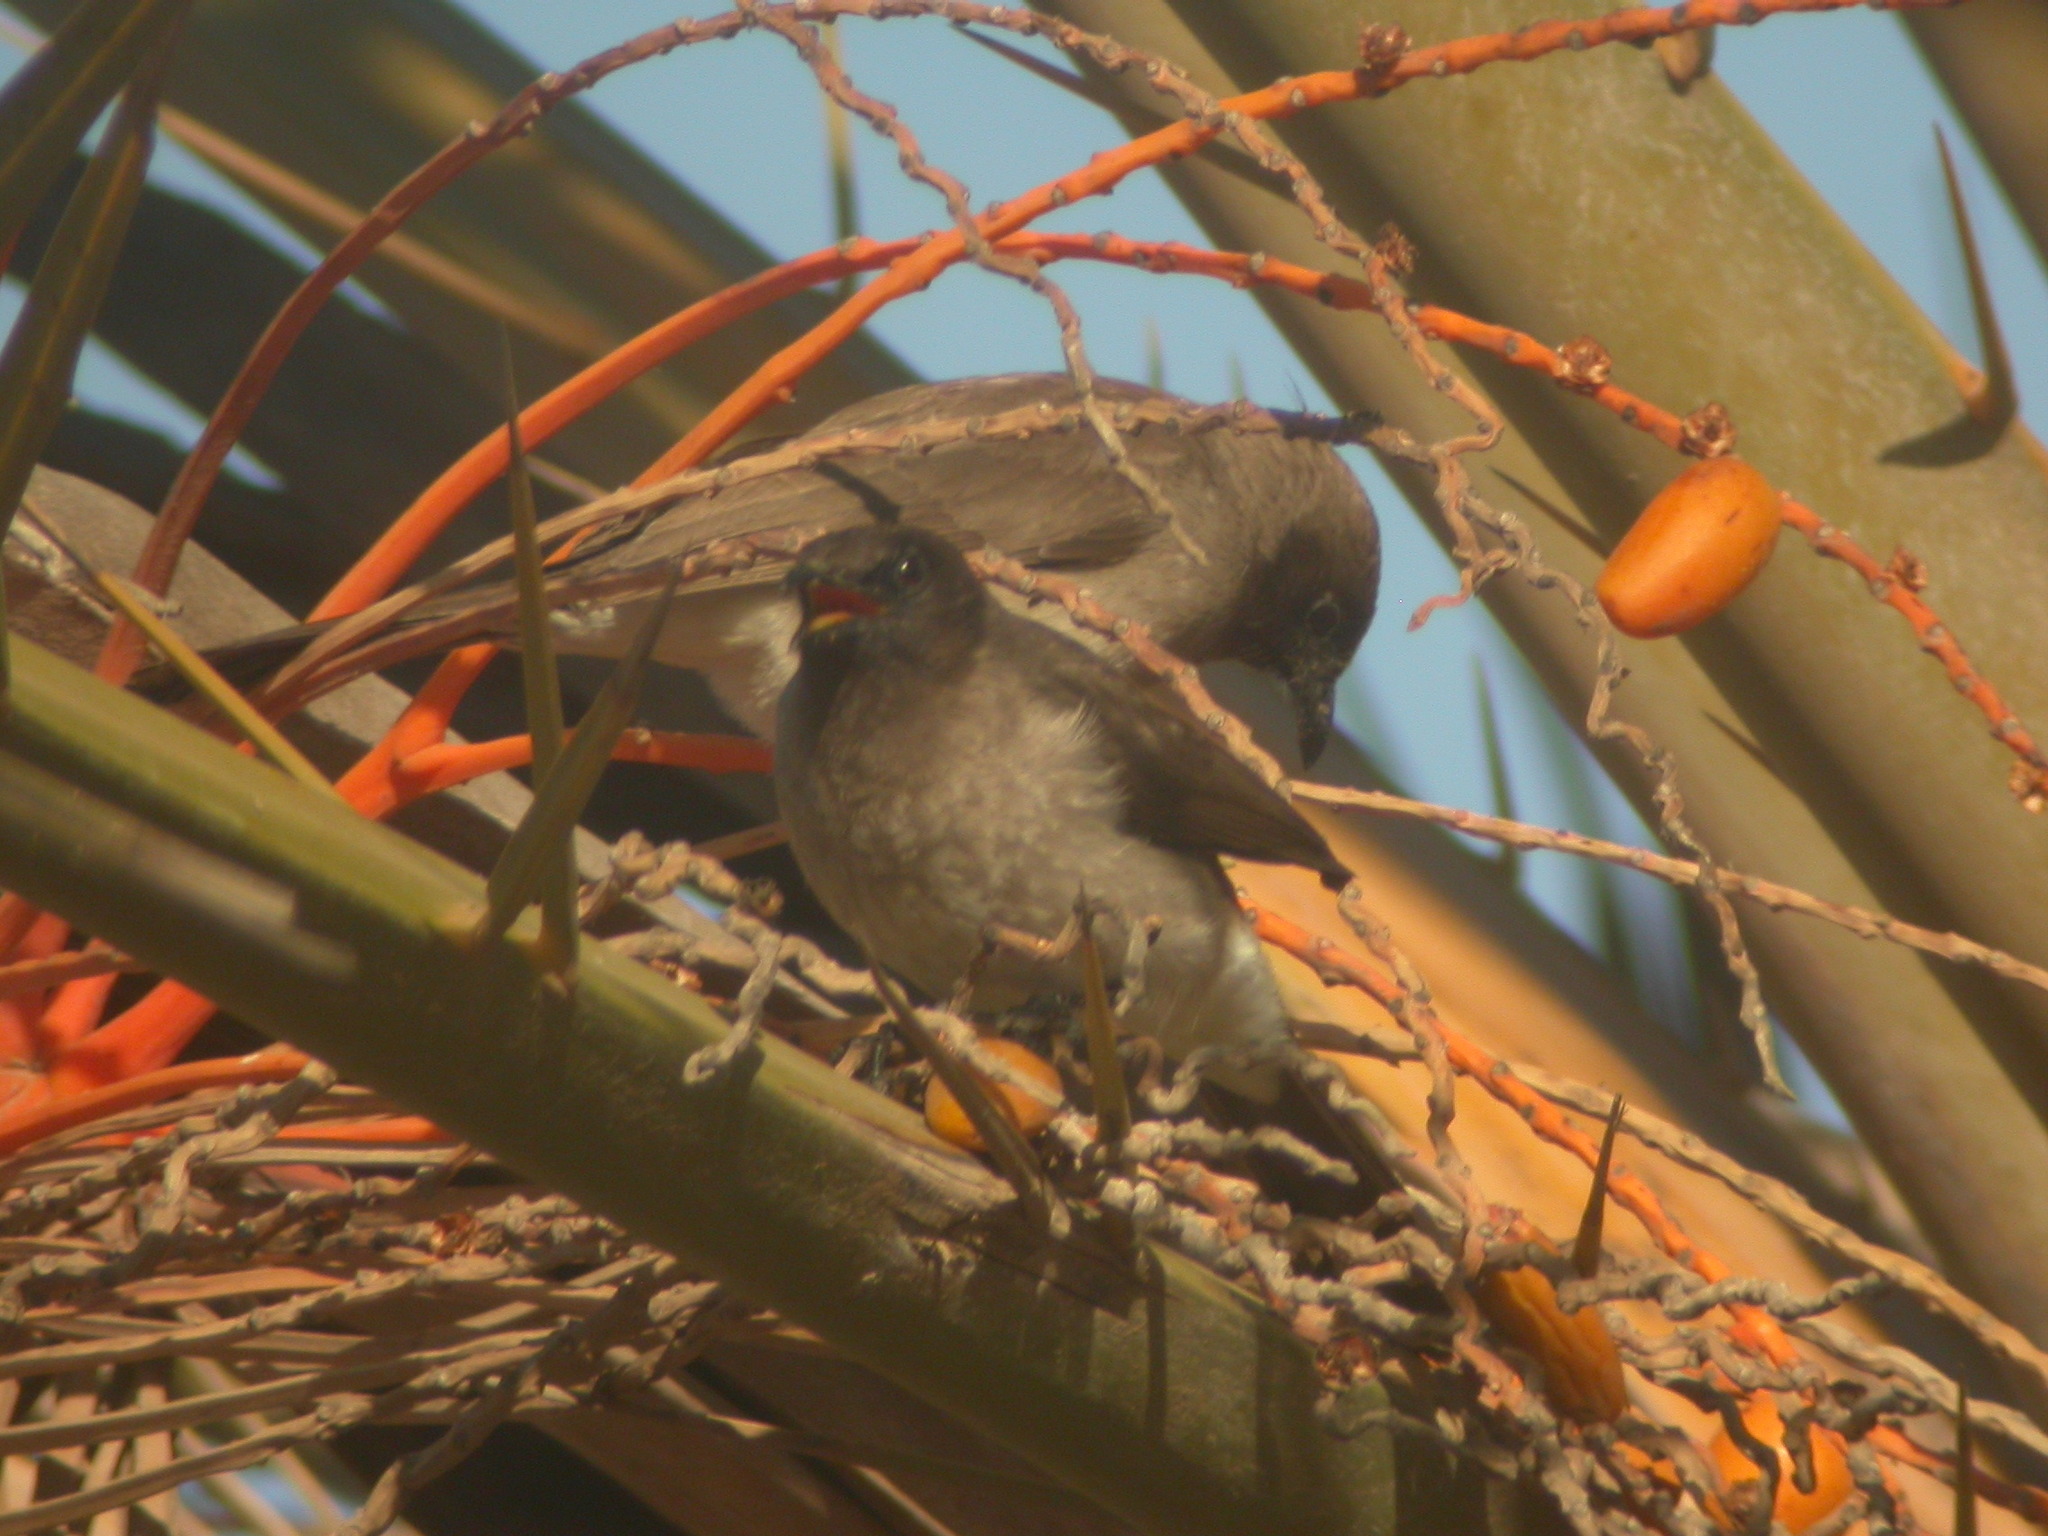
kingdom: Animalia
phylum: Chordata
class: Aves
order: Passeriformes
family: Pycnonotidae
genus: Pycnonotus
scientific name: Pycnonotus barbatus
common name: Common bulbul
